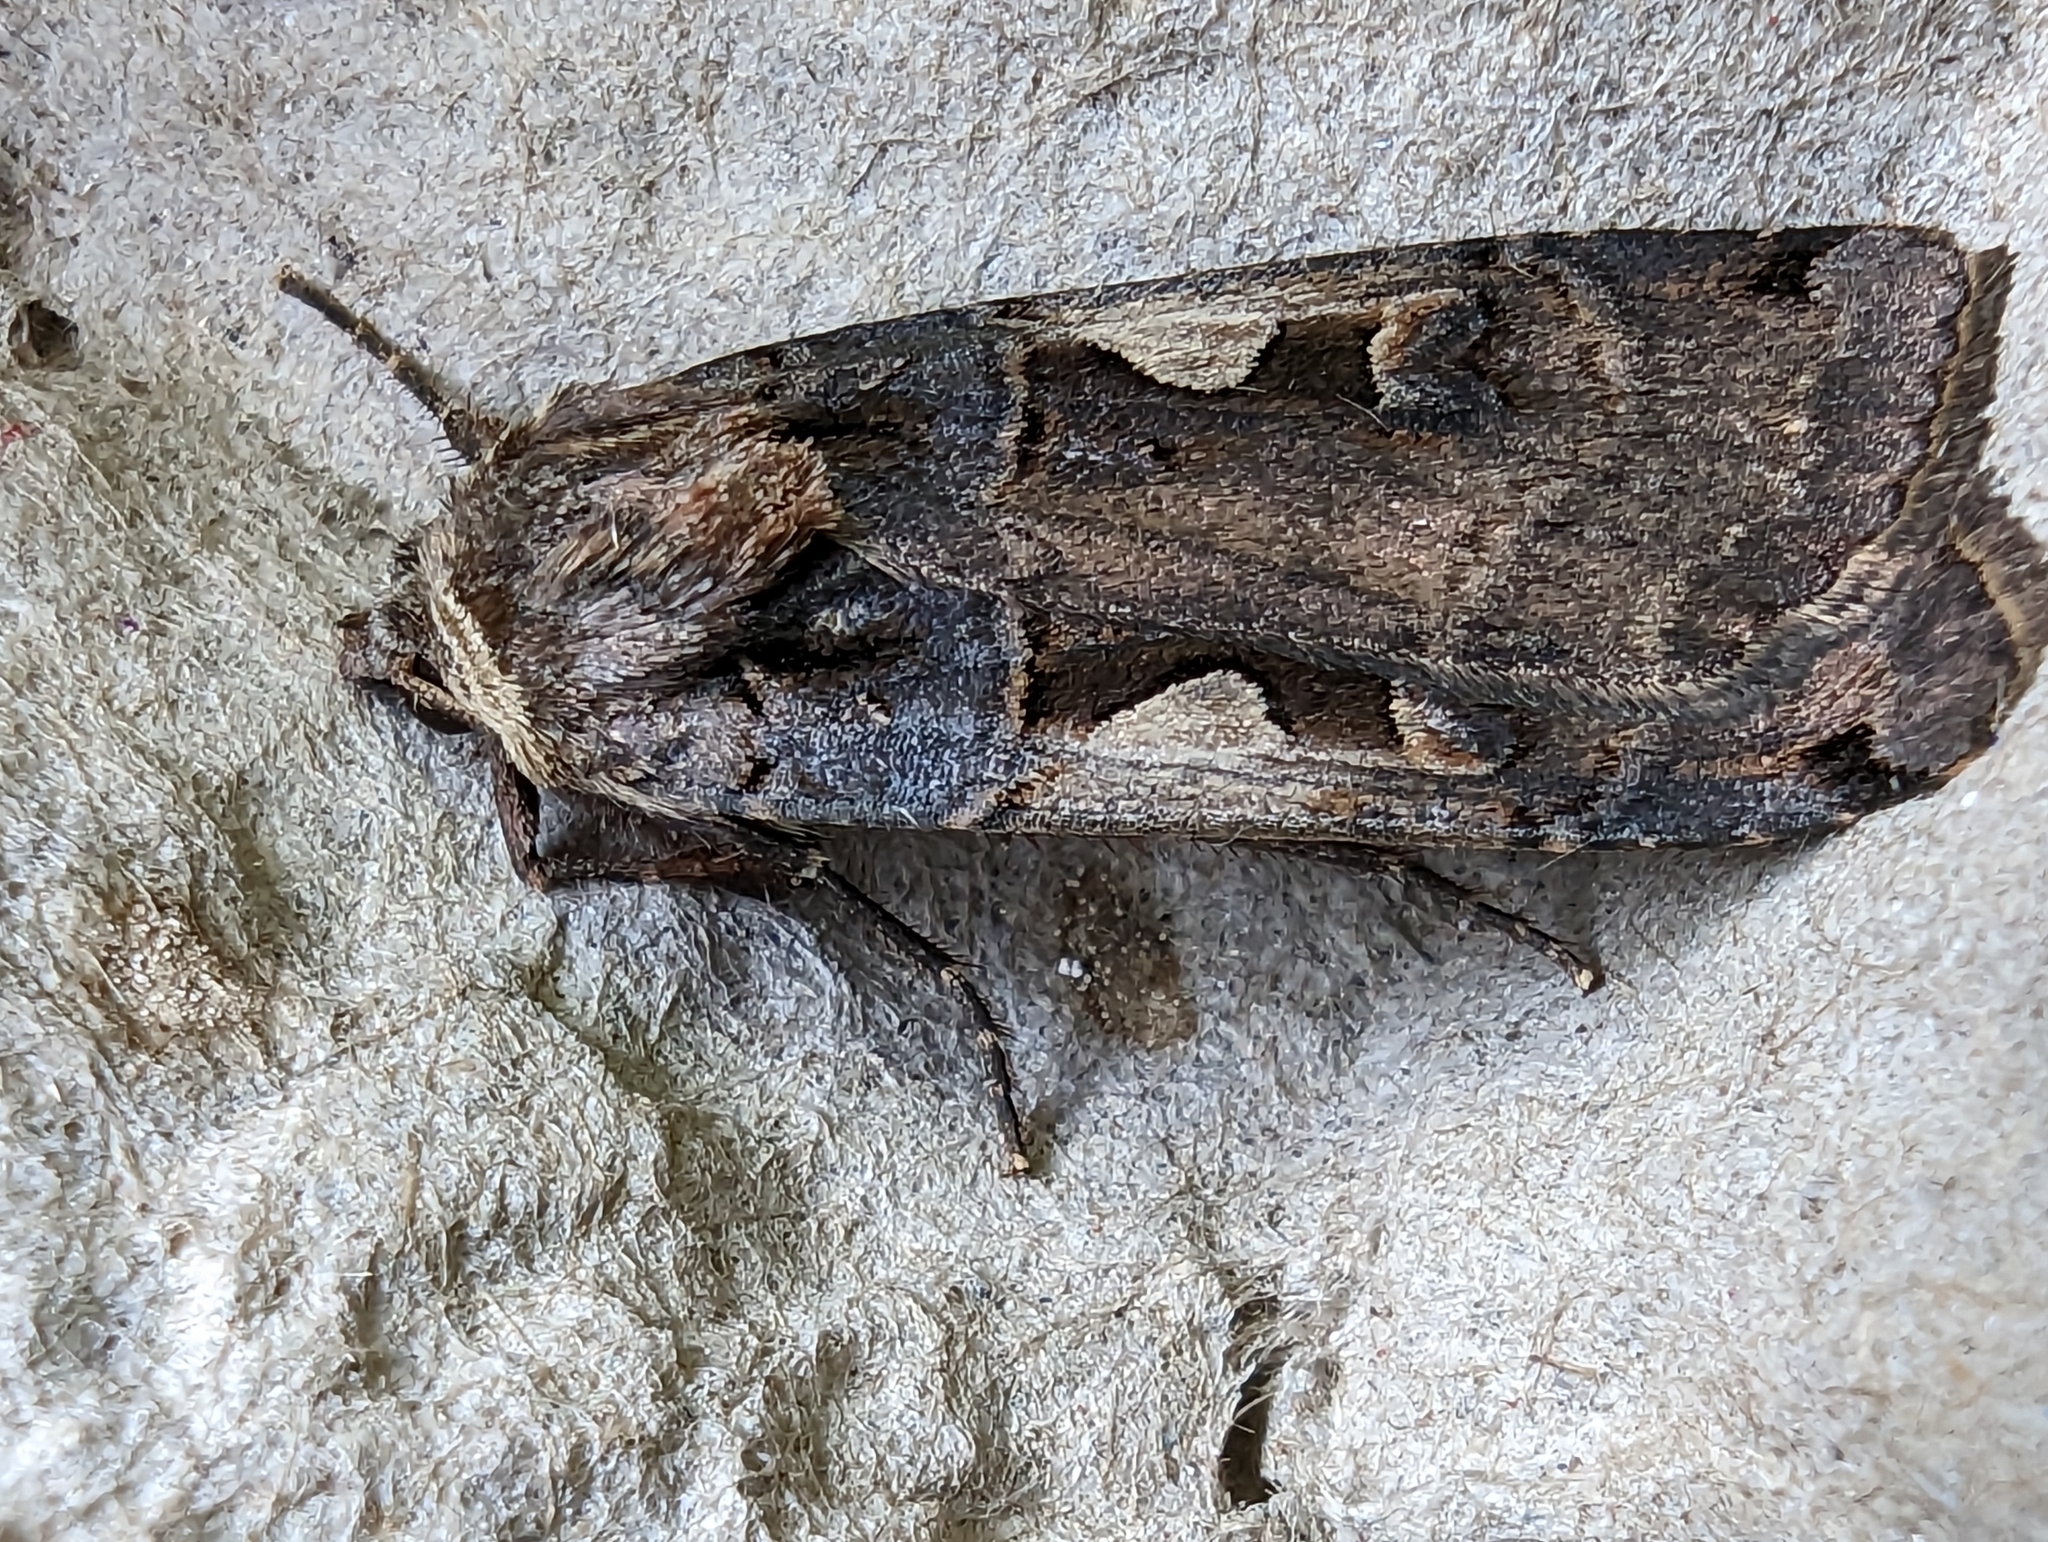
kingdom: Animalia
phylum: Arthropoda
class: Insecta
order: Lepidoptera
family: Noctuidae
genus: Xestia
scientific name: Xestia c-nigrum
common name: Setaceous hebrew character
